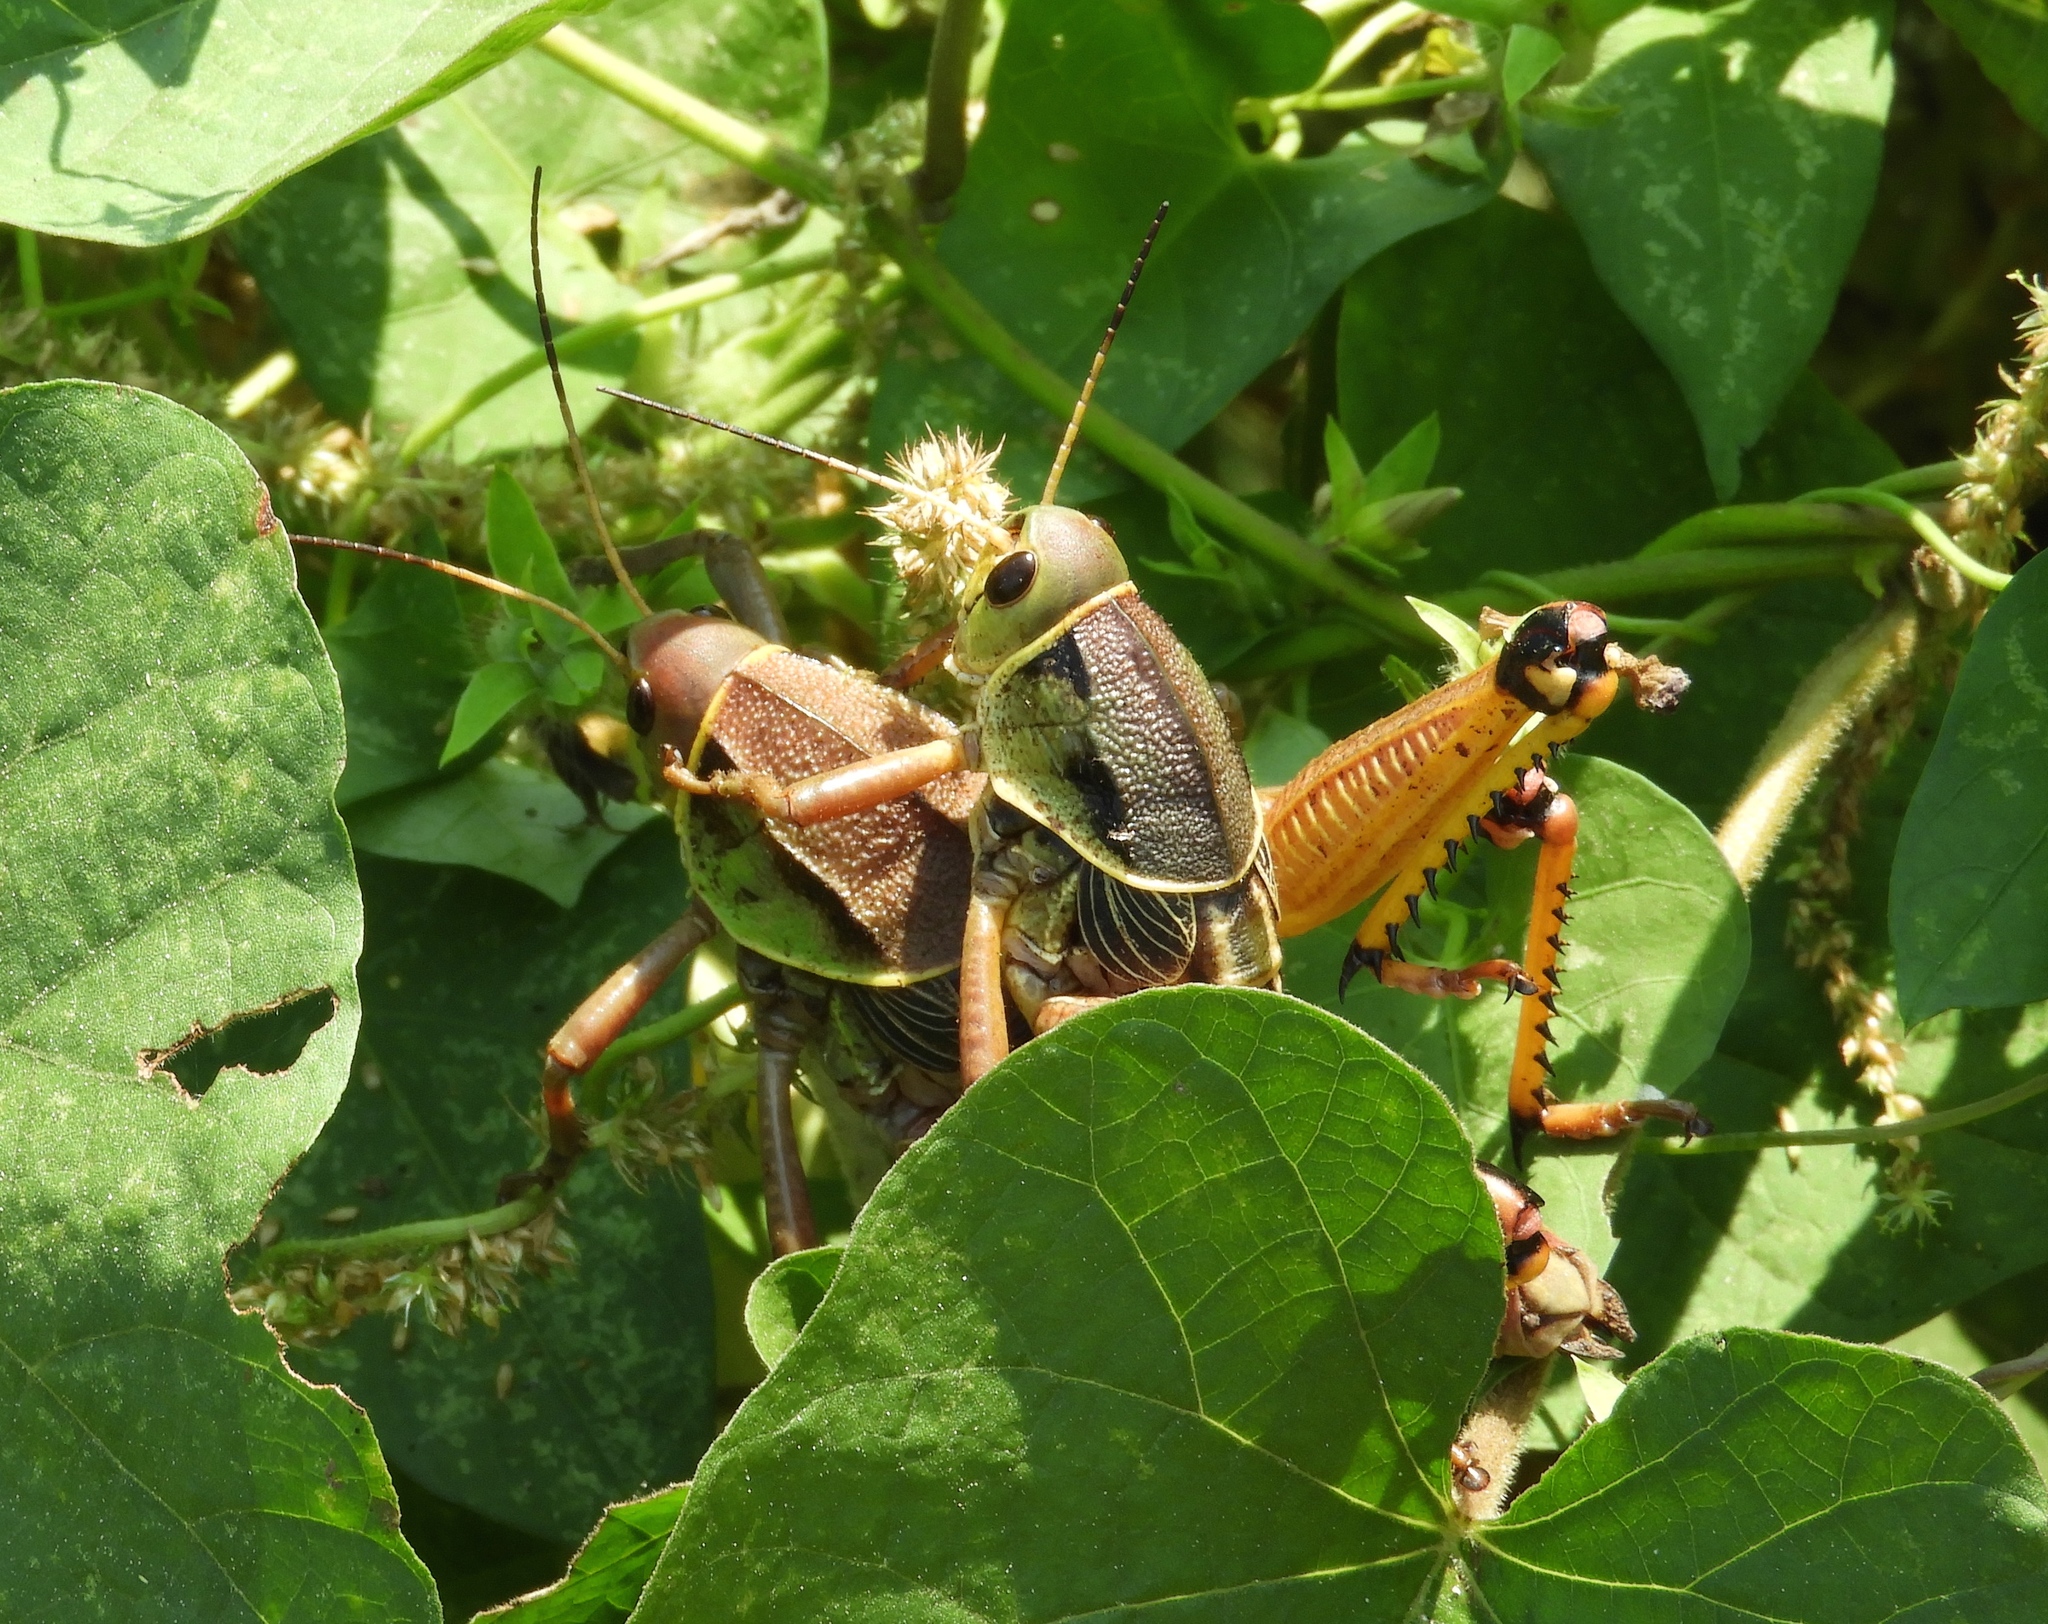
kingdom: Animalia
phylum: Arthropoda
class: Insecta
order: Orthoptera
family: Romaleidae
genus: Brachystola
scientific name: Brachystola behrensii
